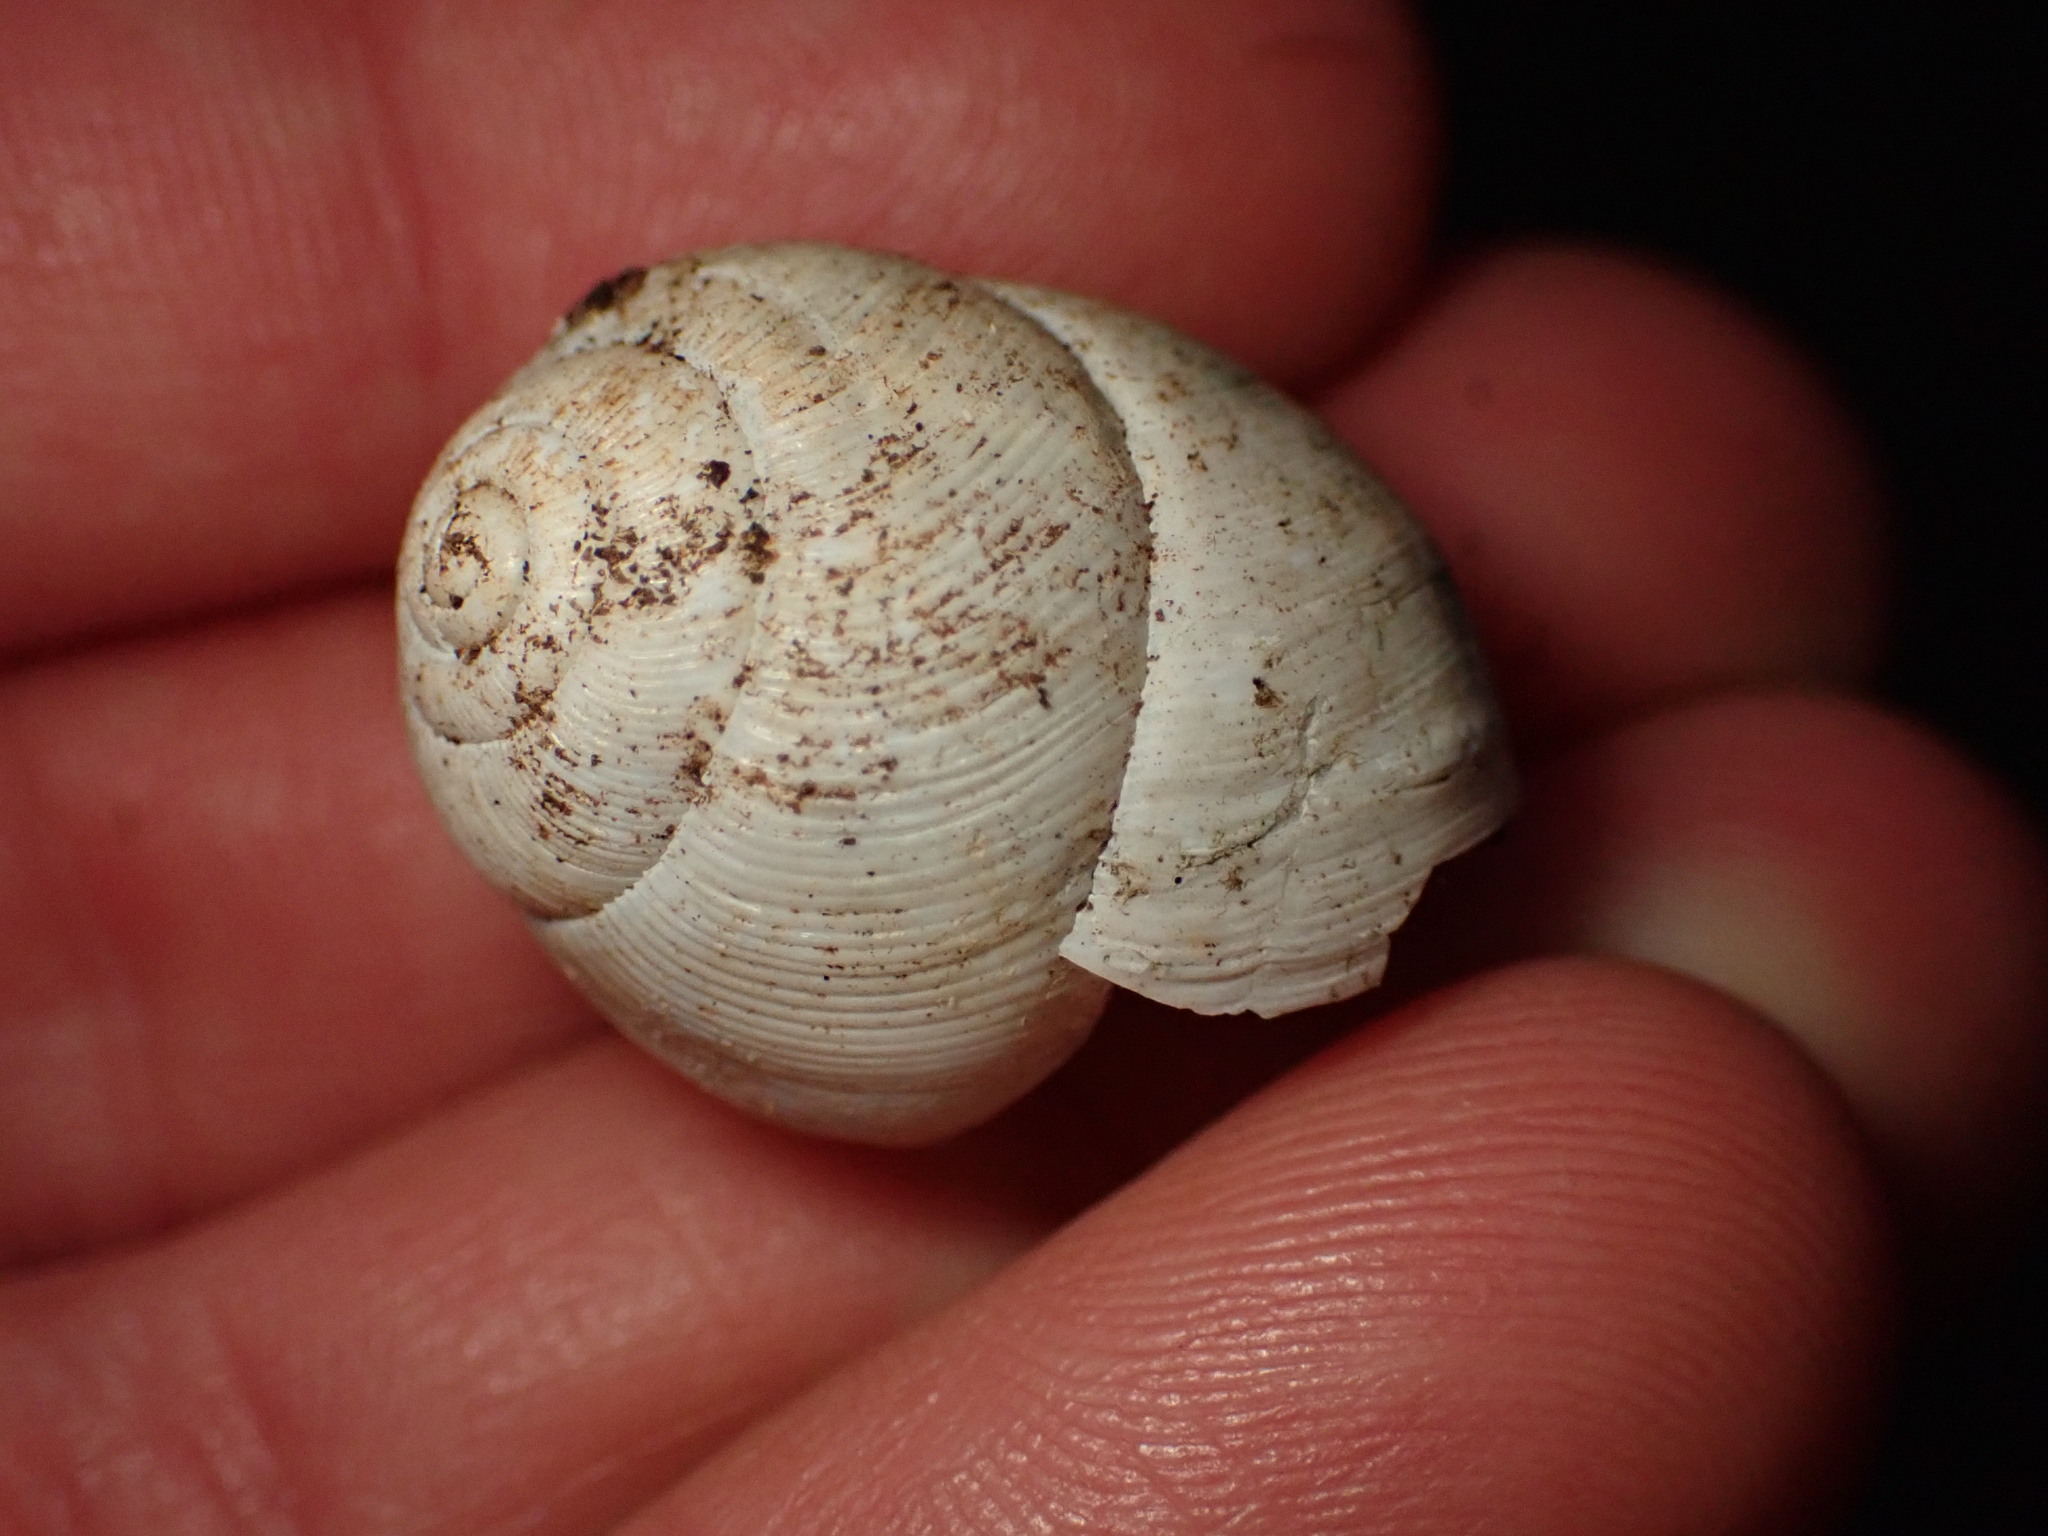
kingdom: Animalia
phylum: Mollusca
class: Gastropoda
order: Stylommatophora
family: Streptaxidae
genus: Tayloria
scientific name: Tayloria kibweziensis
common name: Snail
